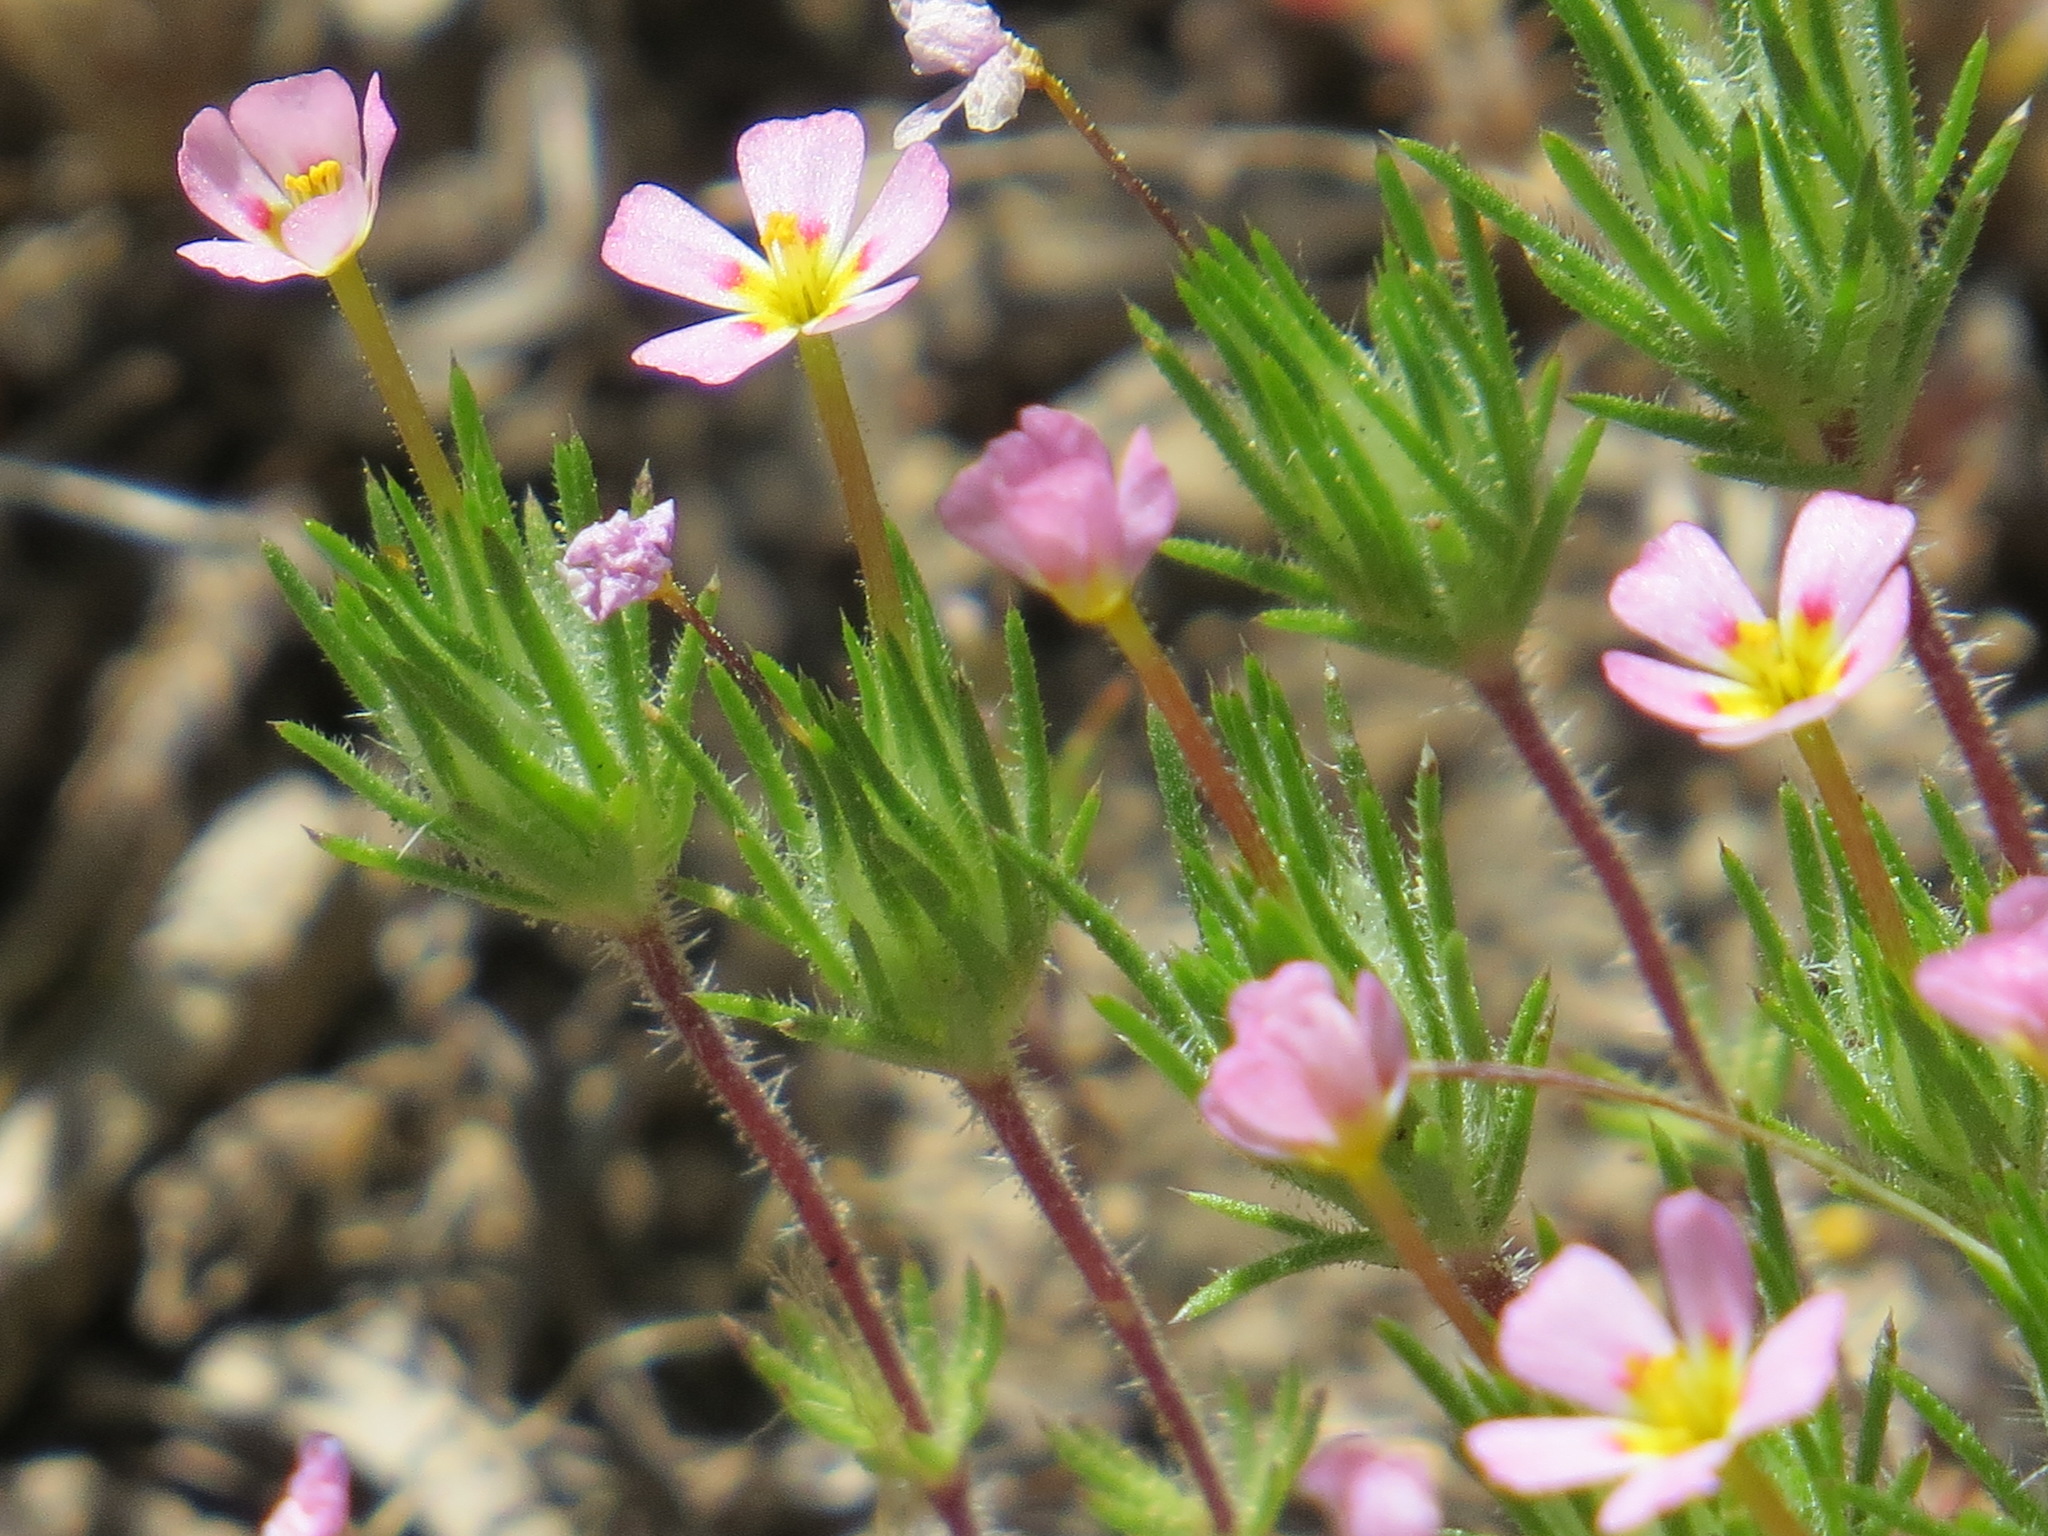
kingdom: Plantae
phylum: Tracheophyta
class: Magnoliopsida
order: Ericales
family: Polemoniaceae
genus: Leptosiphon
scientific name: Leptosiphon ciliatus
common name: Whiskerbrush
